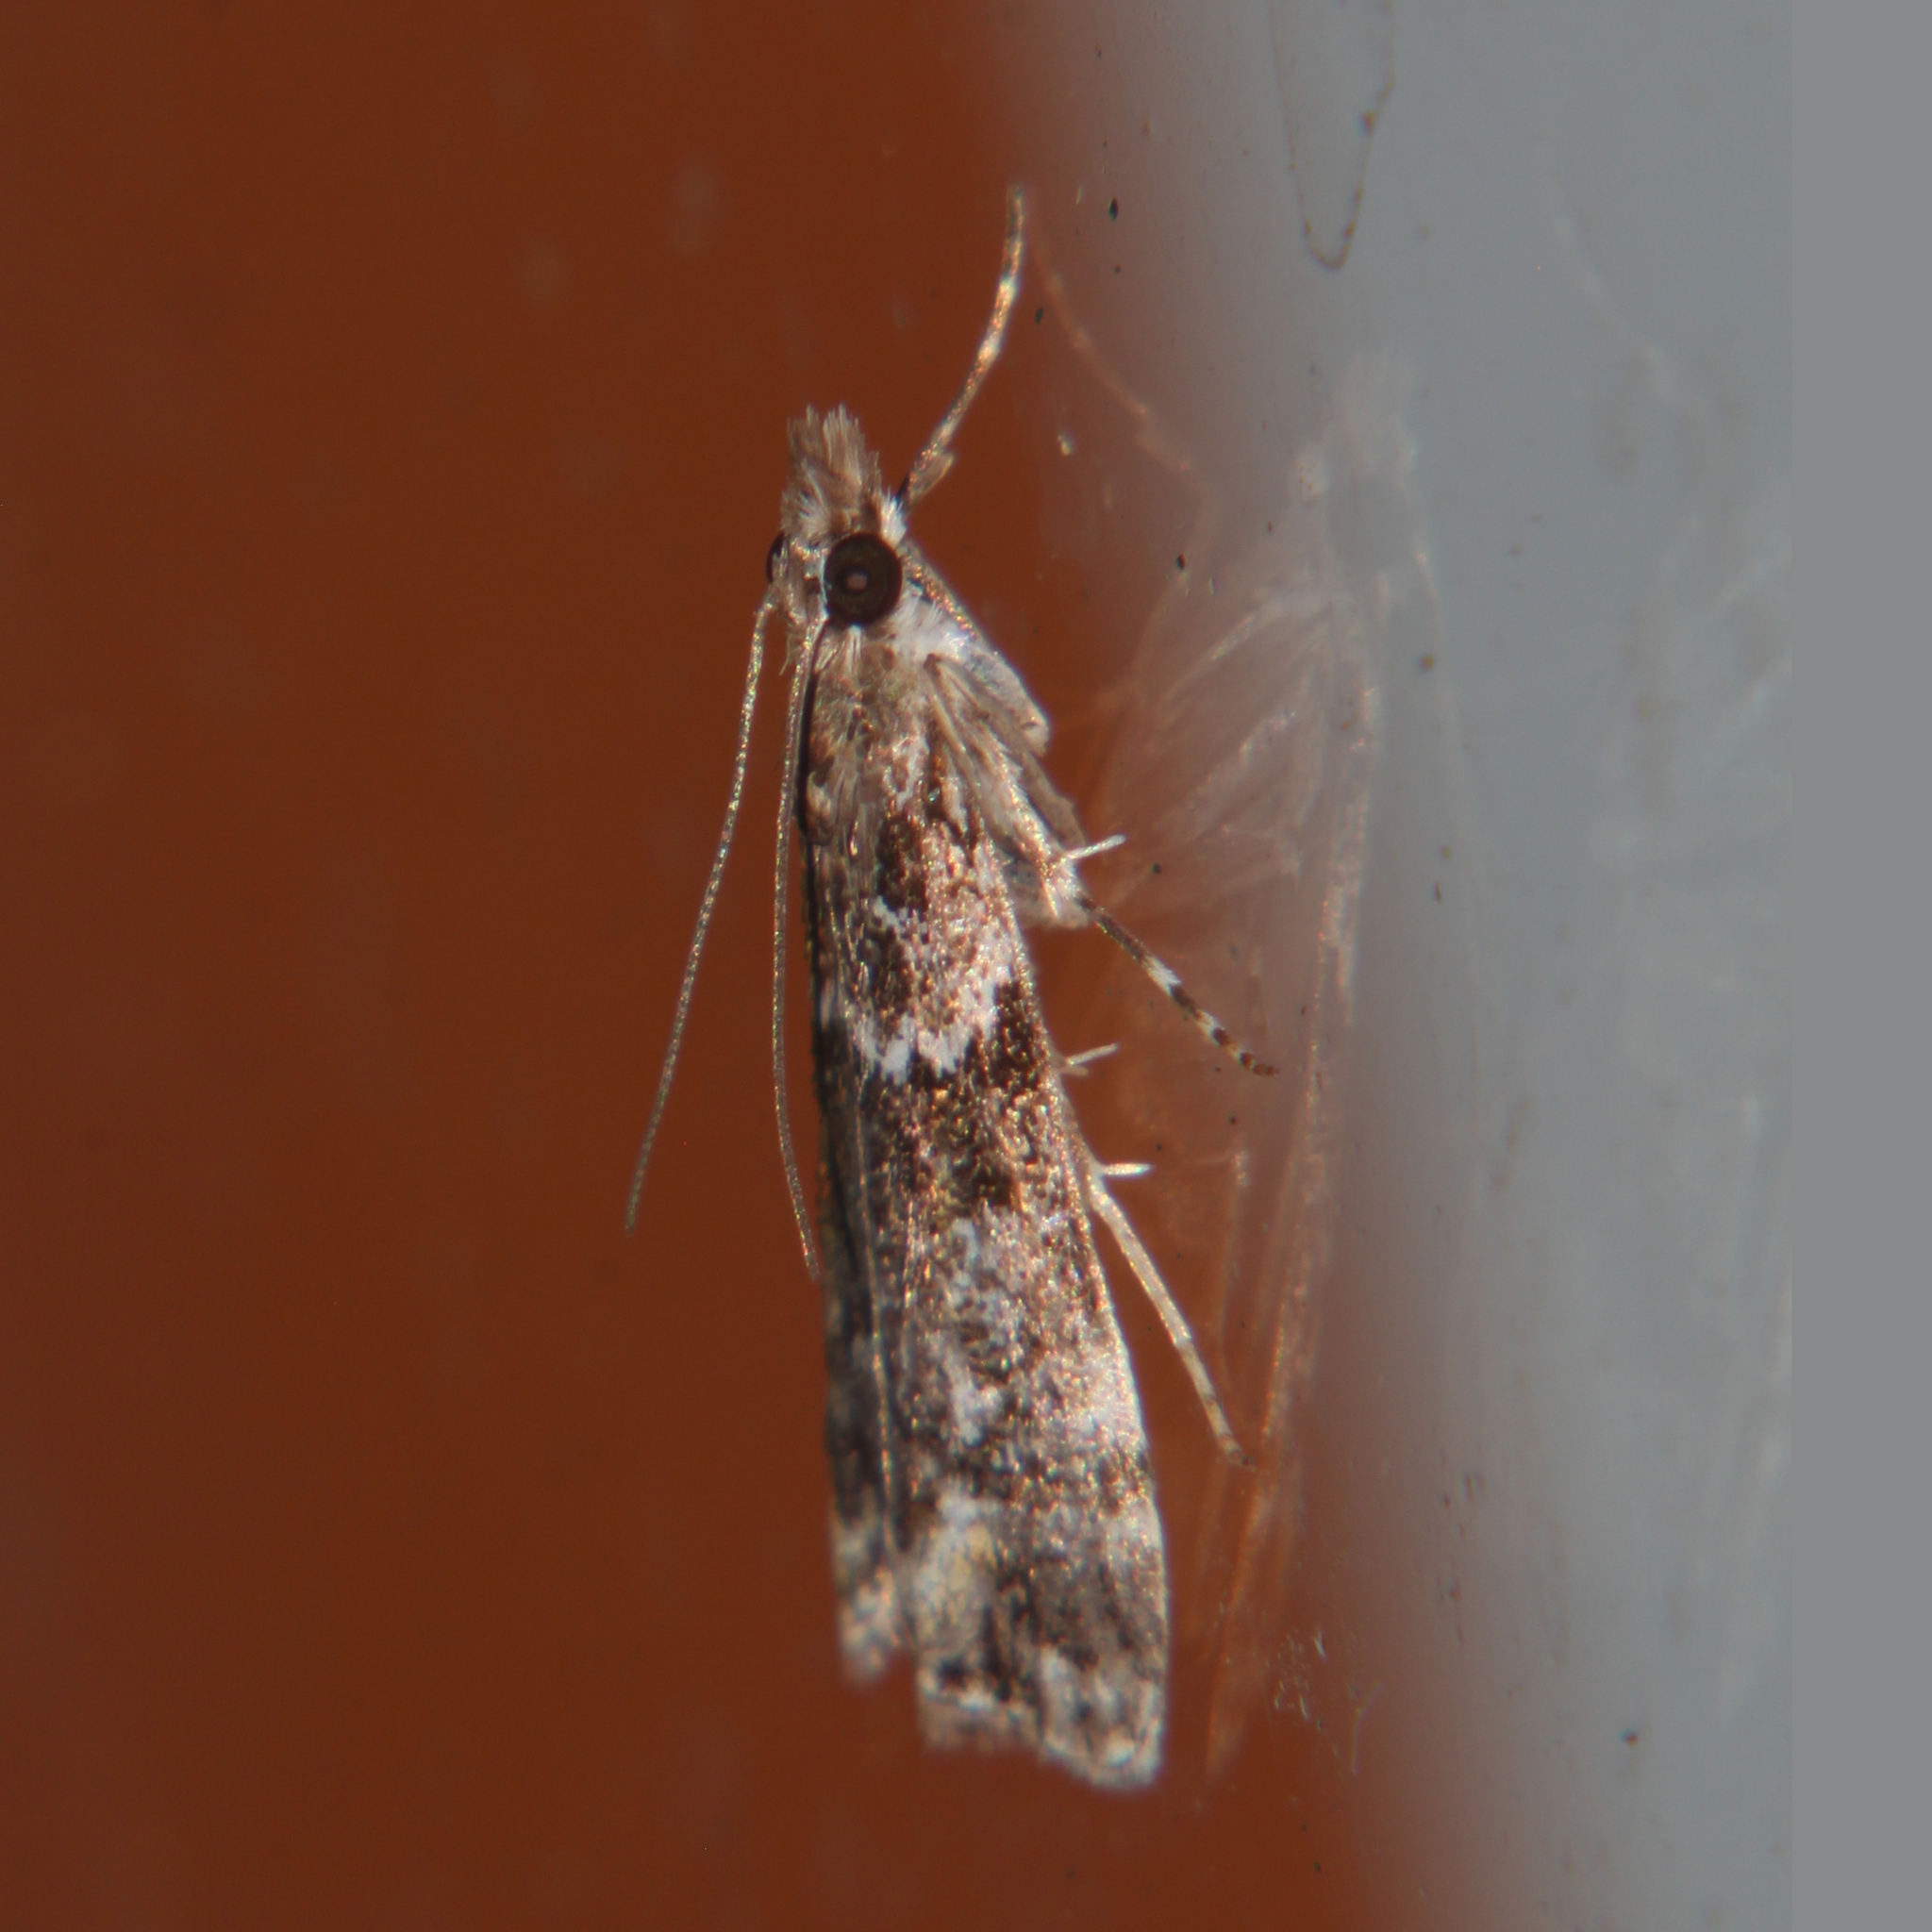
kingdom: Animalia
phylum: Arthropoda
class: Insecta
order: Lepidoptera
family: Crambidae
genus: Eudonia
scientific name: Eudonia minualis
